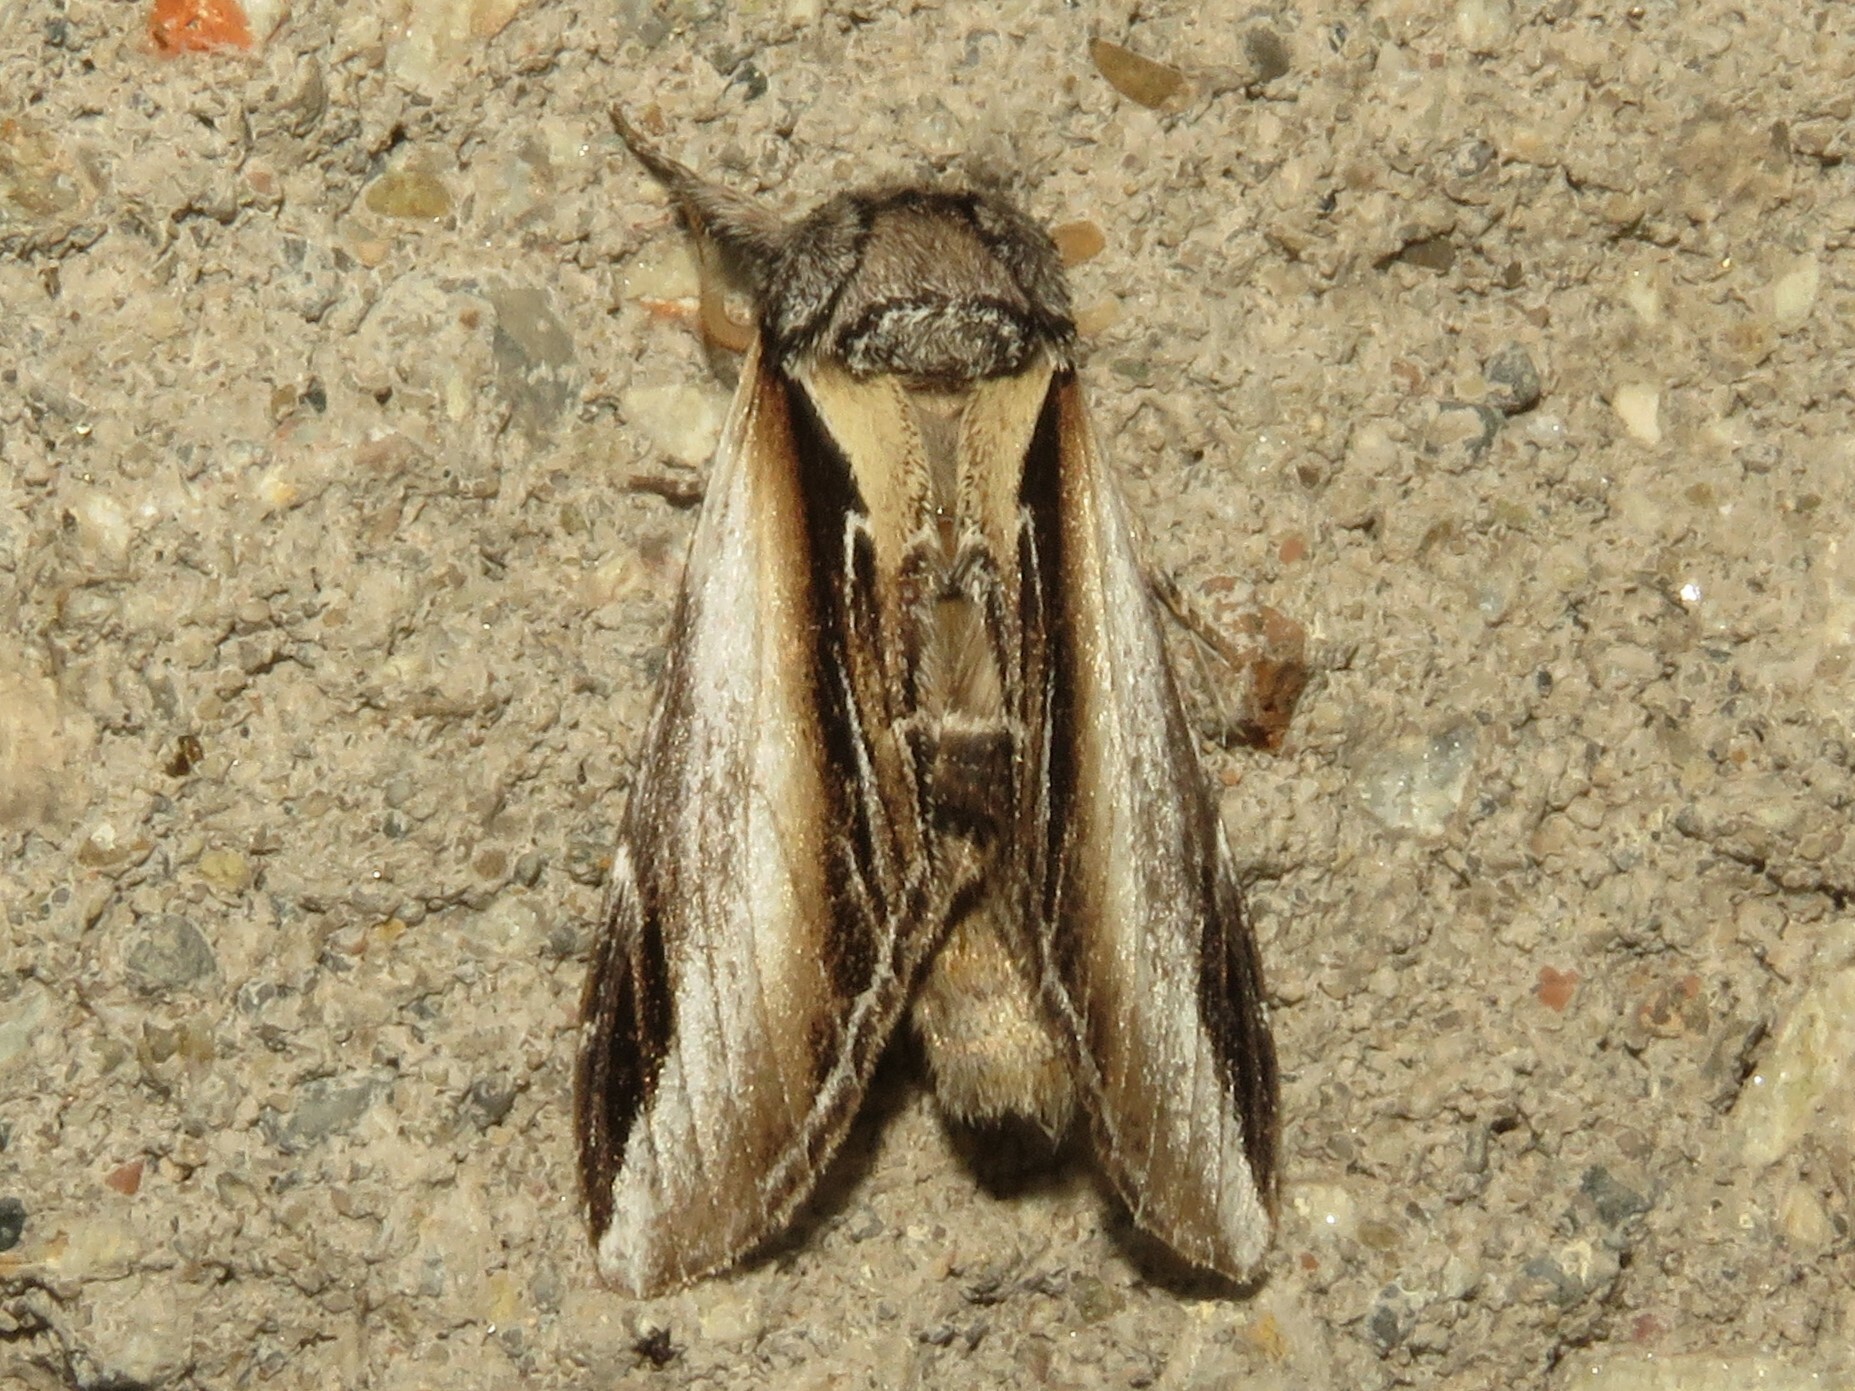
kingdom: Animalia
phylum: Arthropoda
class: Insecta
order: Lepidoptera
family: Notodontidae
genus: Pheosia
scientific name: Pheosia rimosa
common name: Black-rimmed prominent
